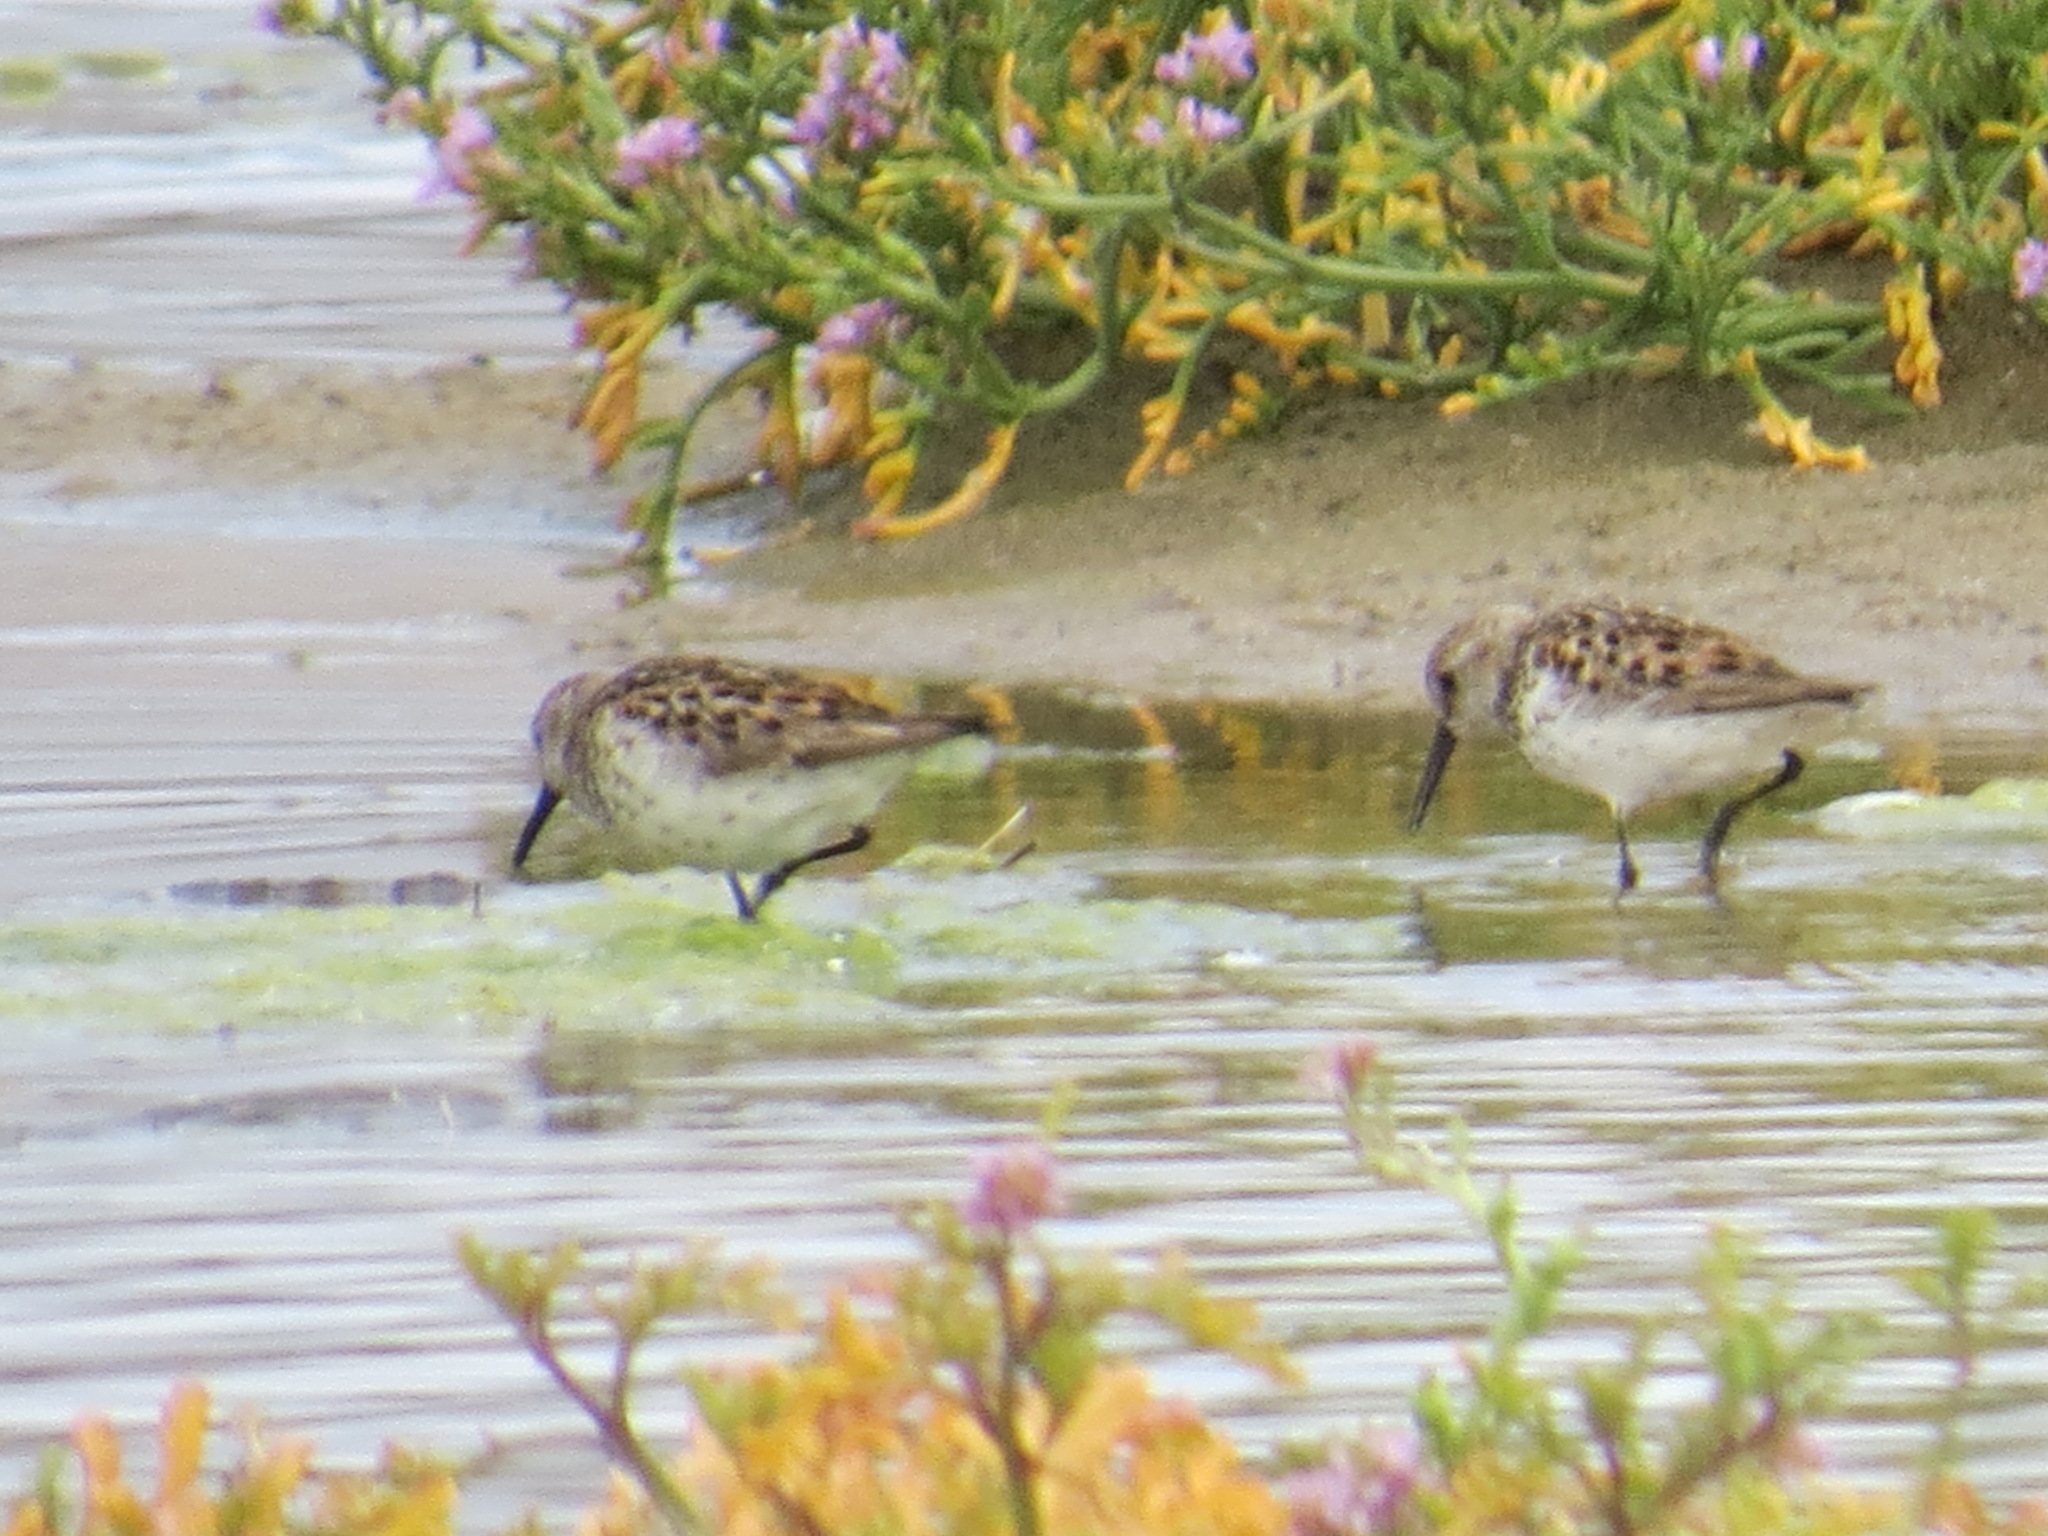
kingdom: Animalia
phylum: Chordata
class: Aves
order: Charadriiformes
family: Scolopacidae
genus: Calidris
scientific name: Calidris mauri
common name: Western sandpiper
